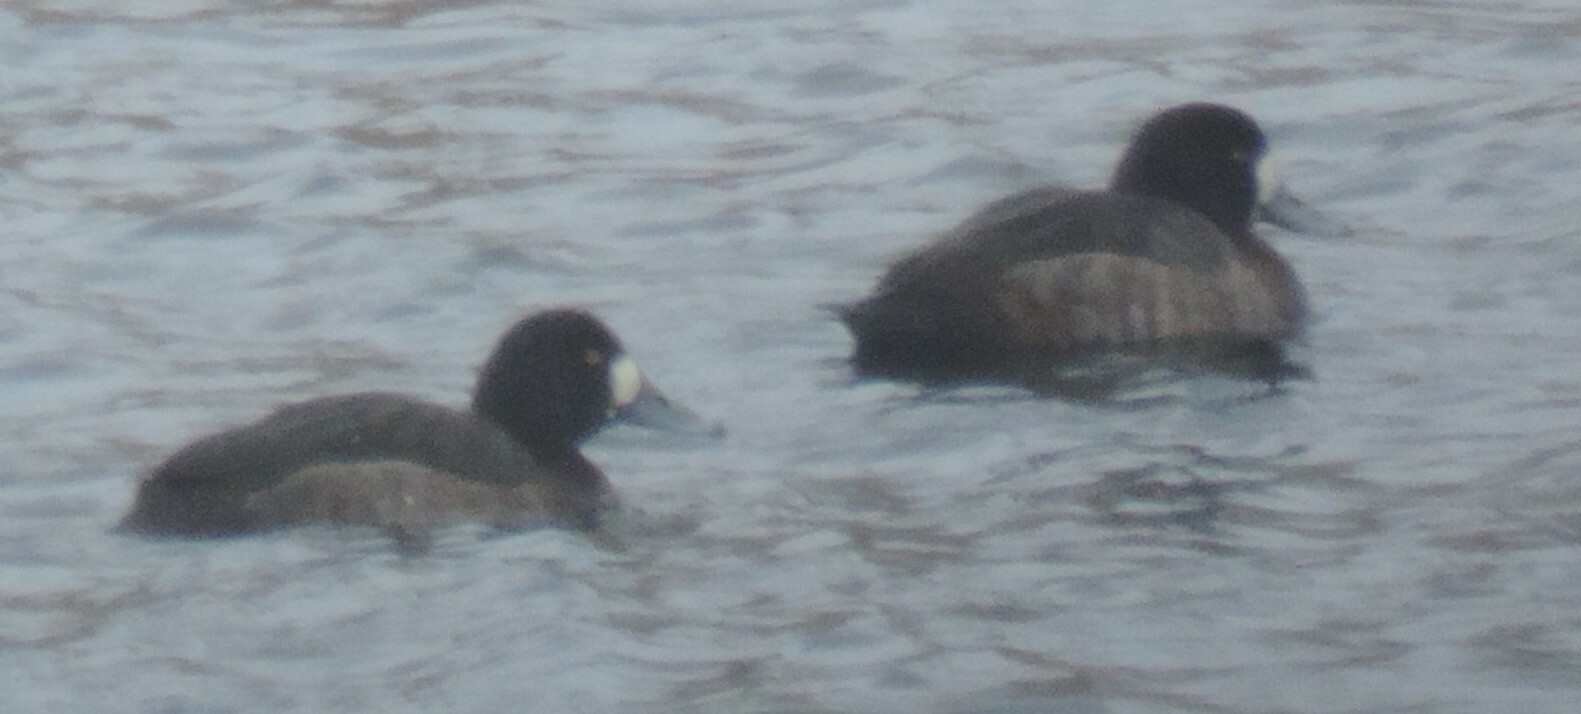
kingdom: Animalia
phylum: Chordata
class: Aves
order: Anseriformes
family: Anatidae
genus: Aythya
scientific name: Aythya marila
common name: Greater scaup
